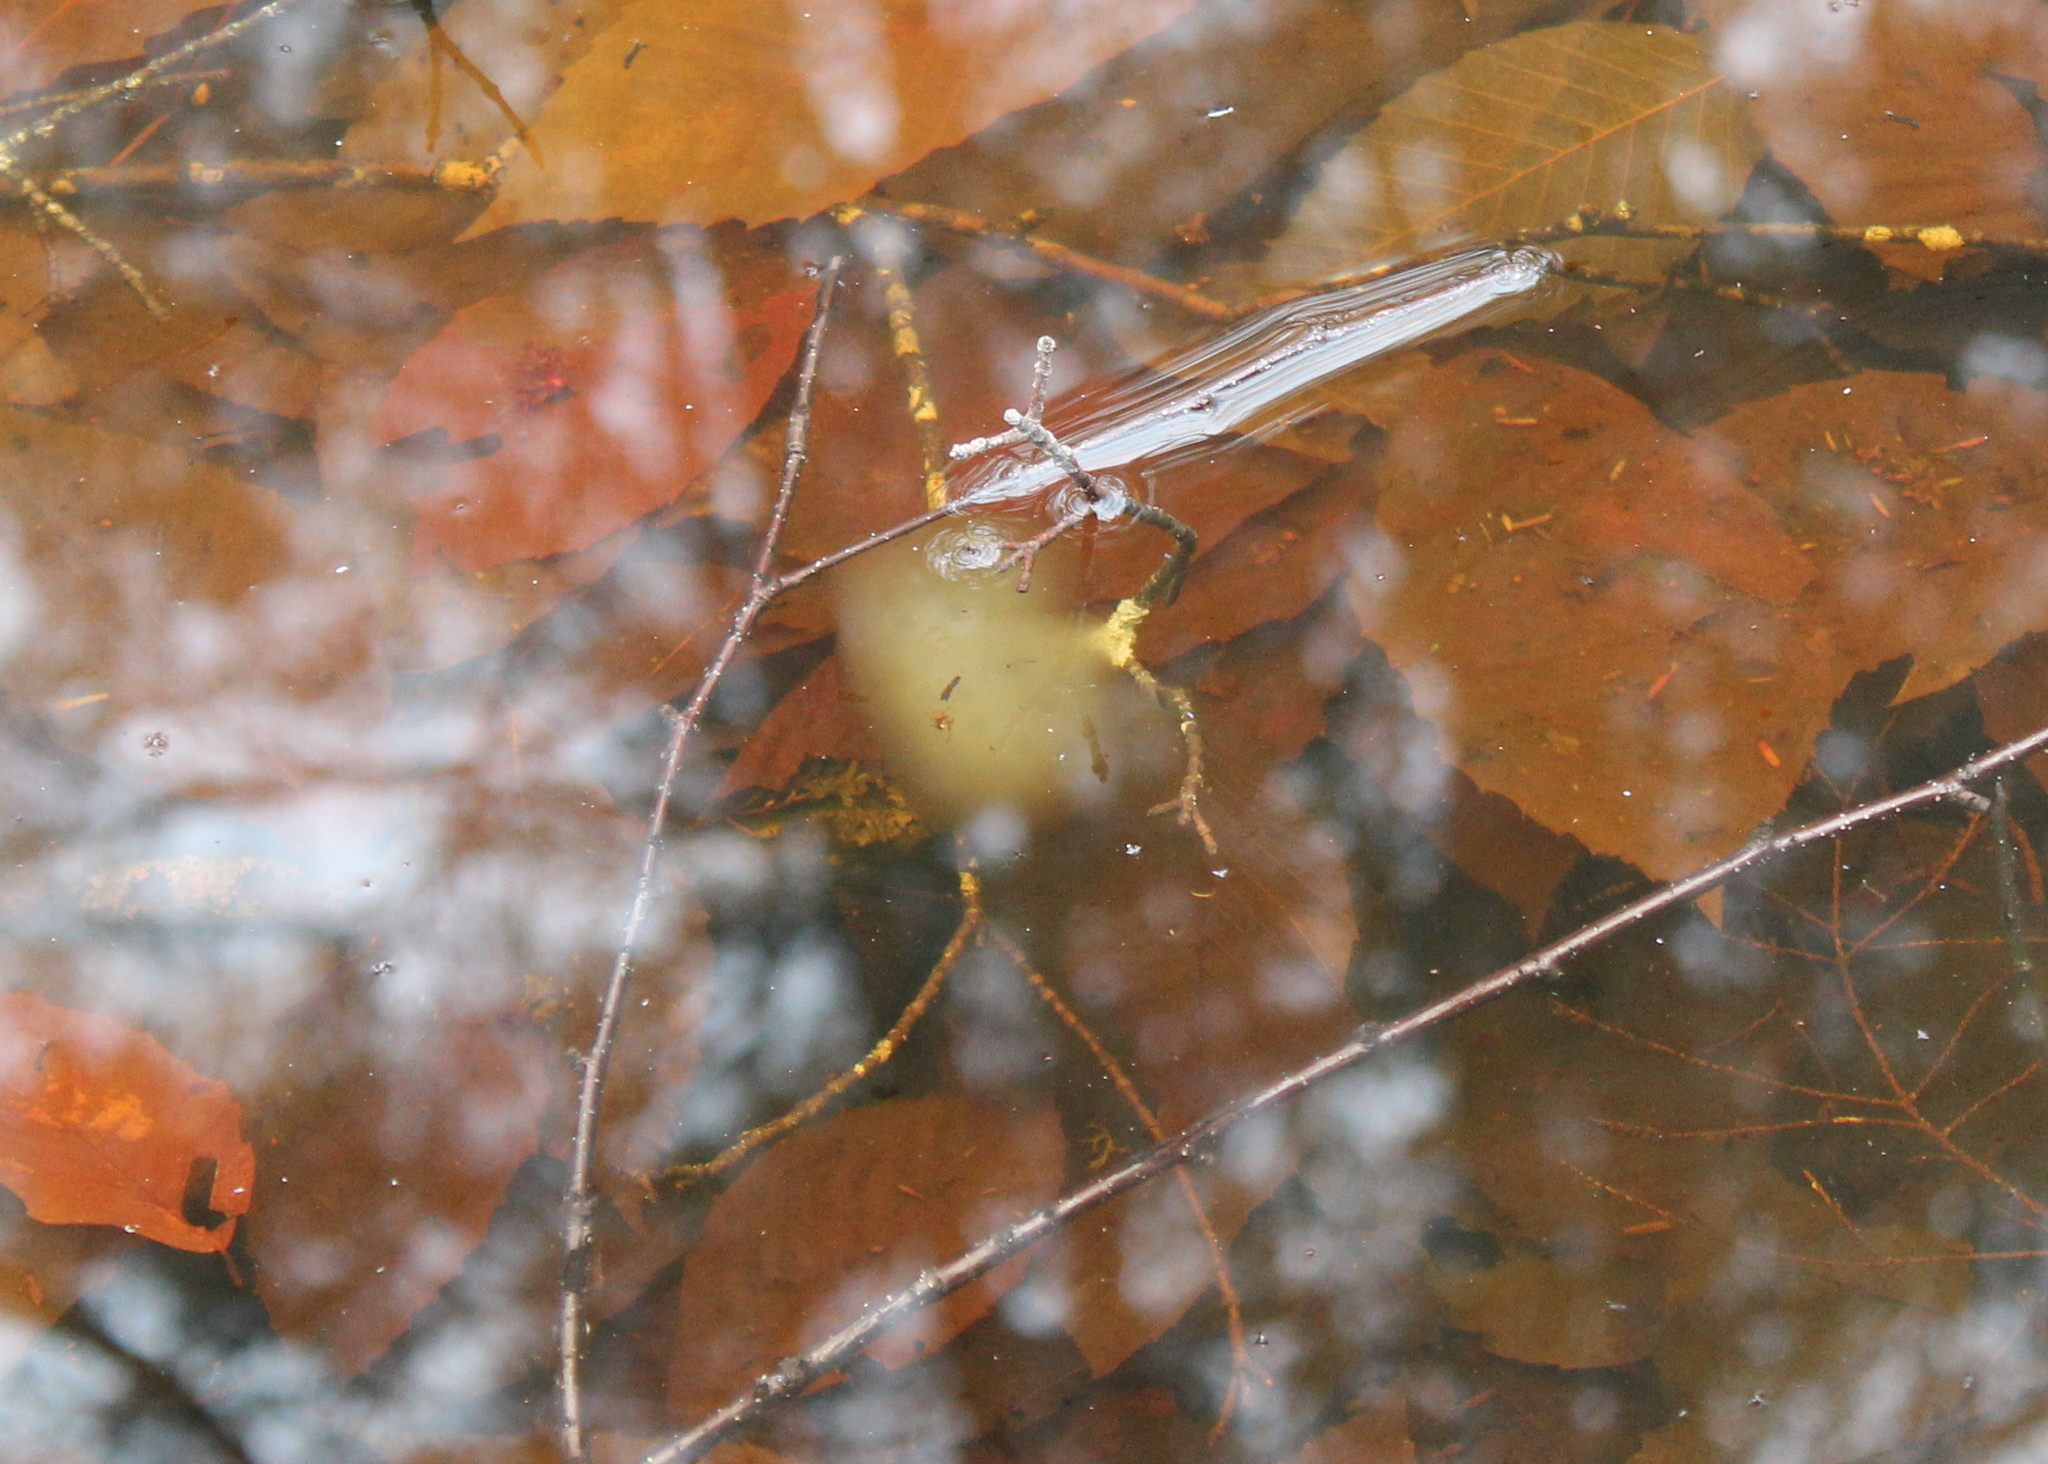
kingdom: Animalia
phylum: Chordata
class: Amphibia
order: Caudata
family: Ambystomatidae
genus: Ambystoma
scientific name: Ambystoma maculatum
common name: Spotted salamander
